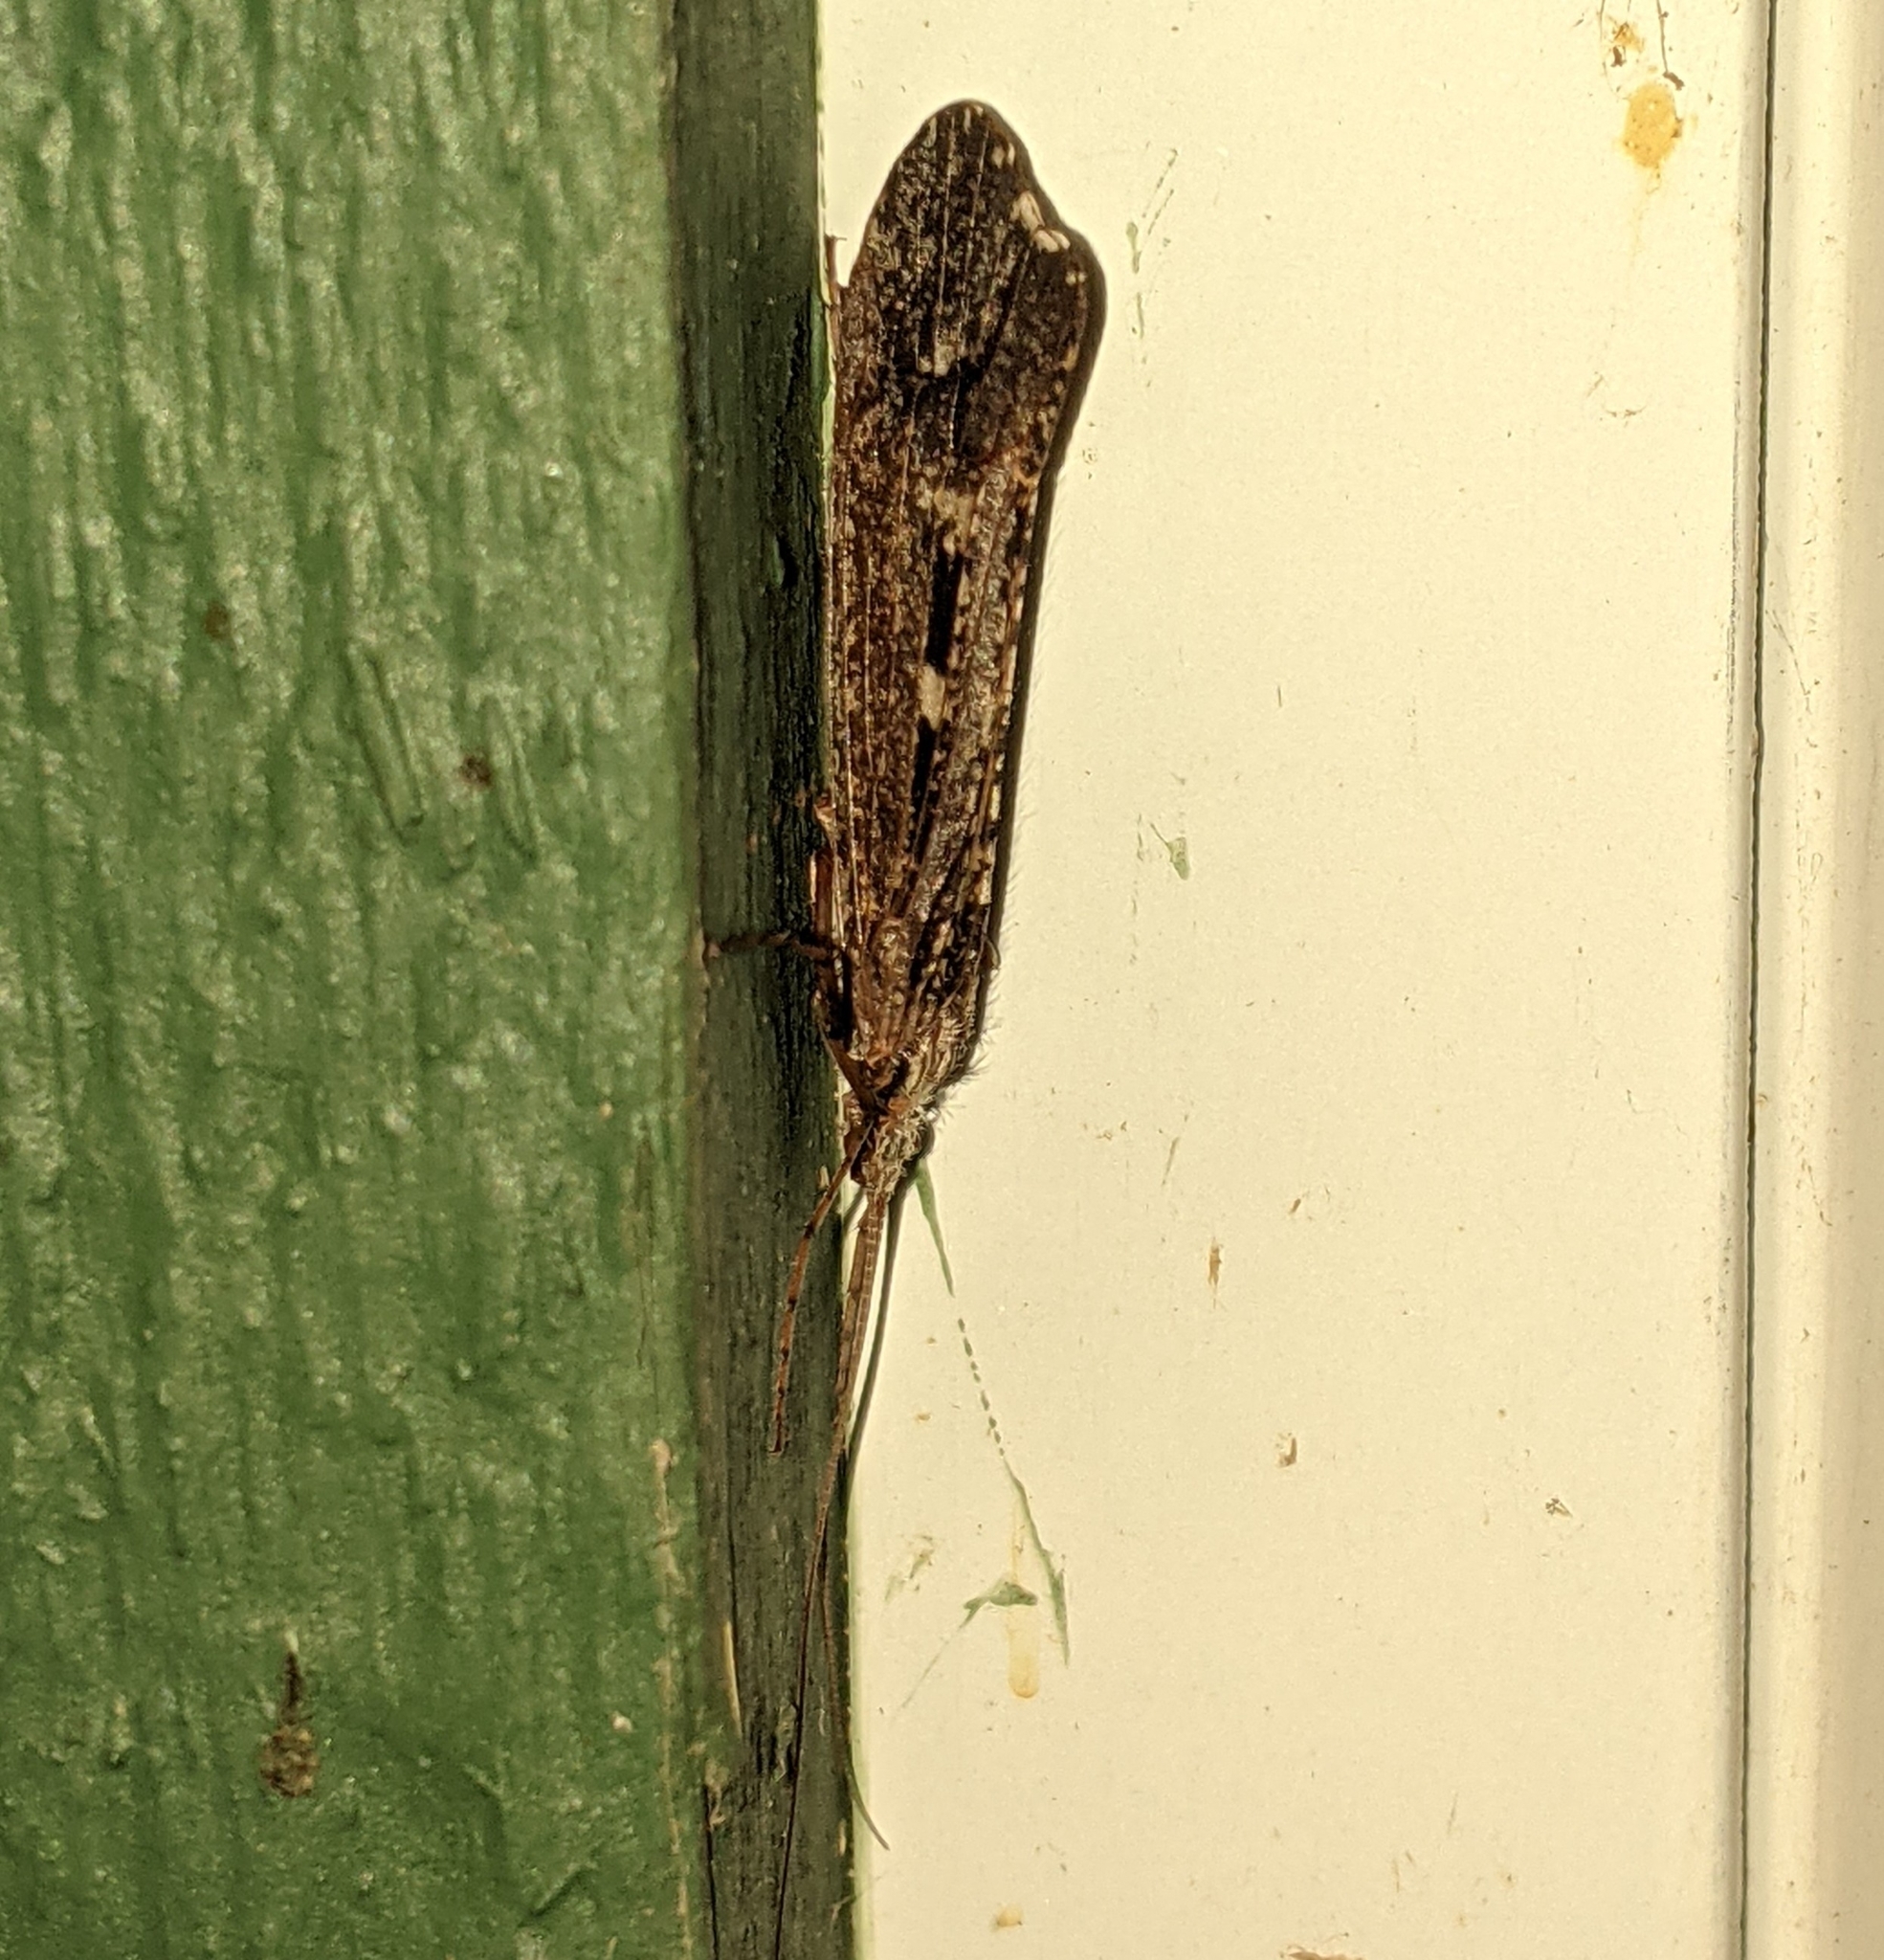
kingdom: Animalia
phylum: Arthropoda
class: Insecta
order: Trichoptera
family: Limnephilidae
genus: Glyphopsyche
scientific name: Glyphopsyche irrorata
